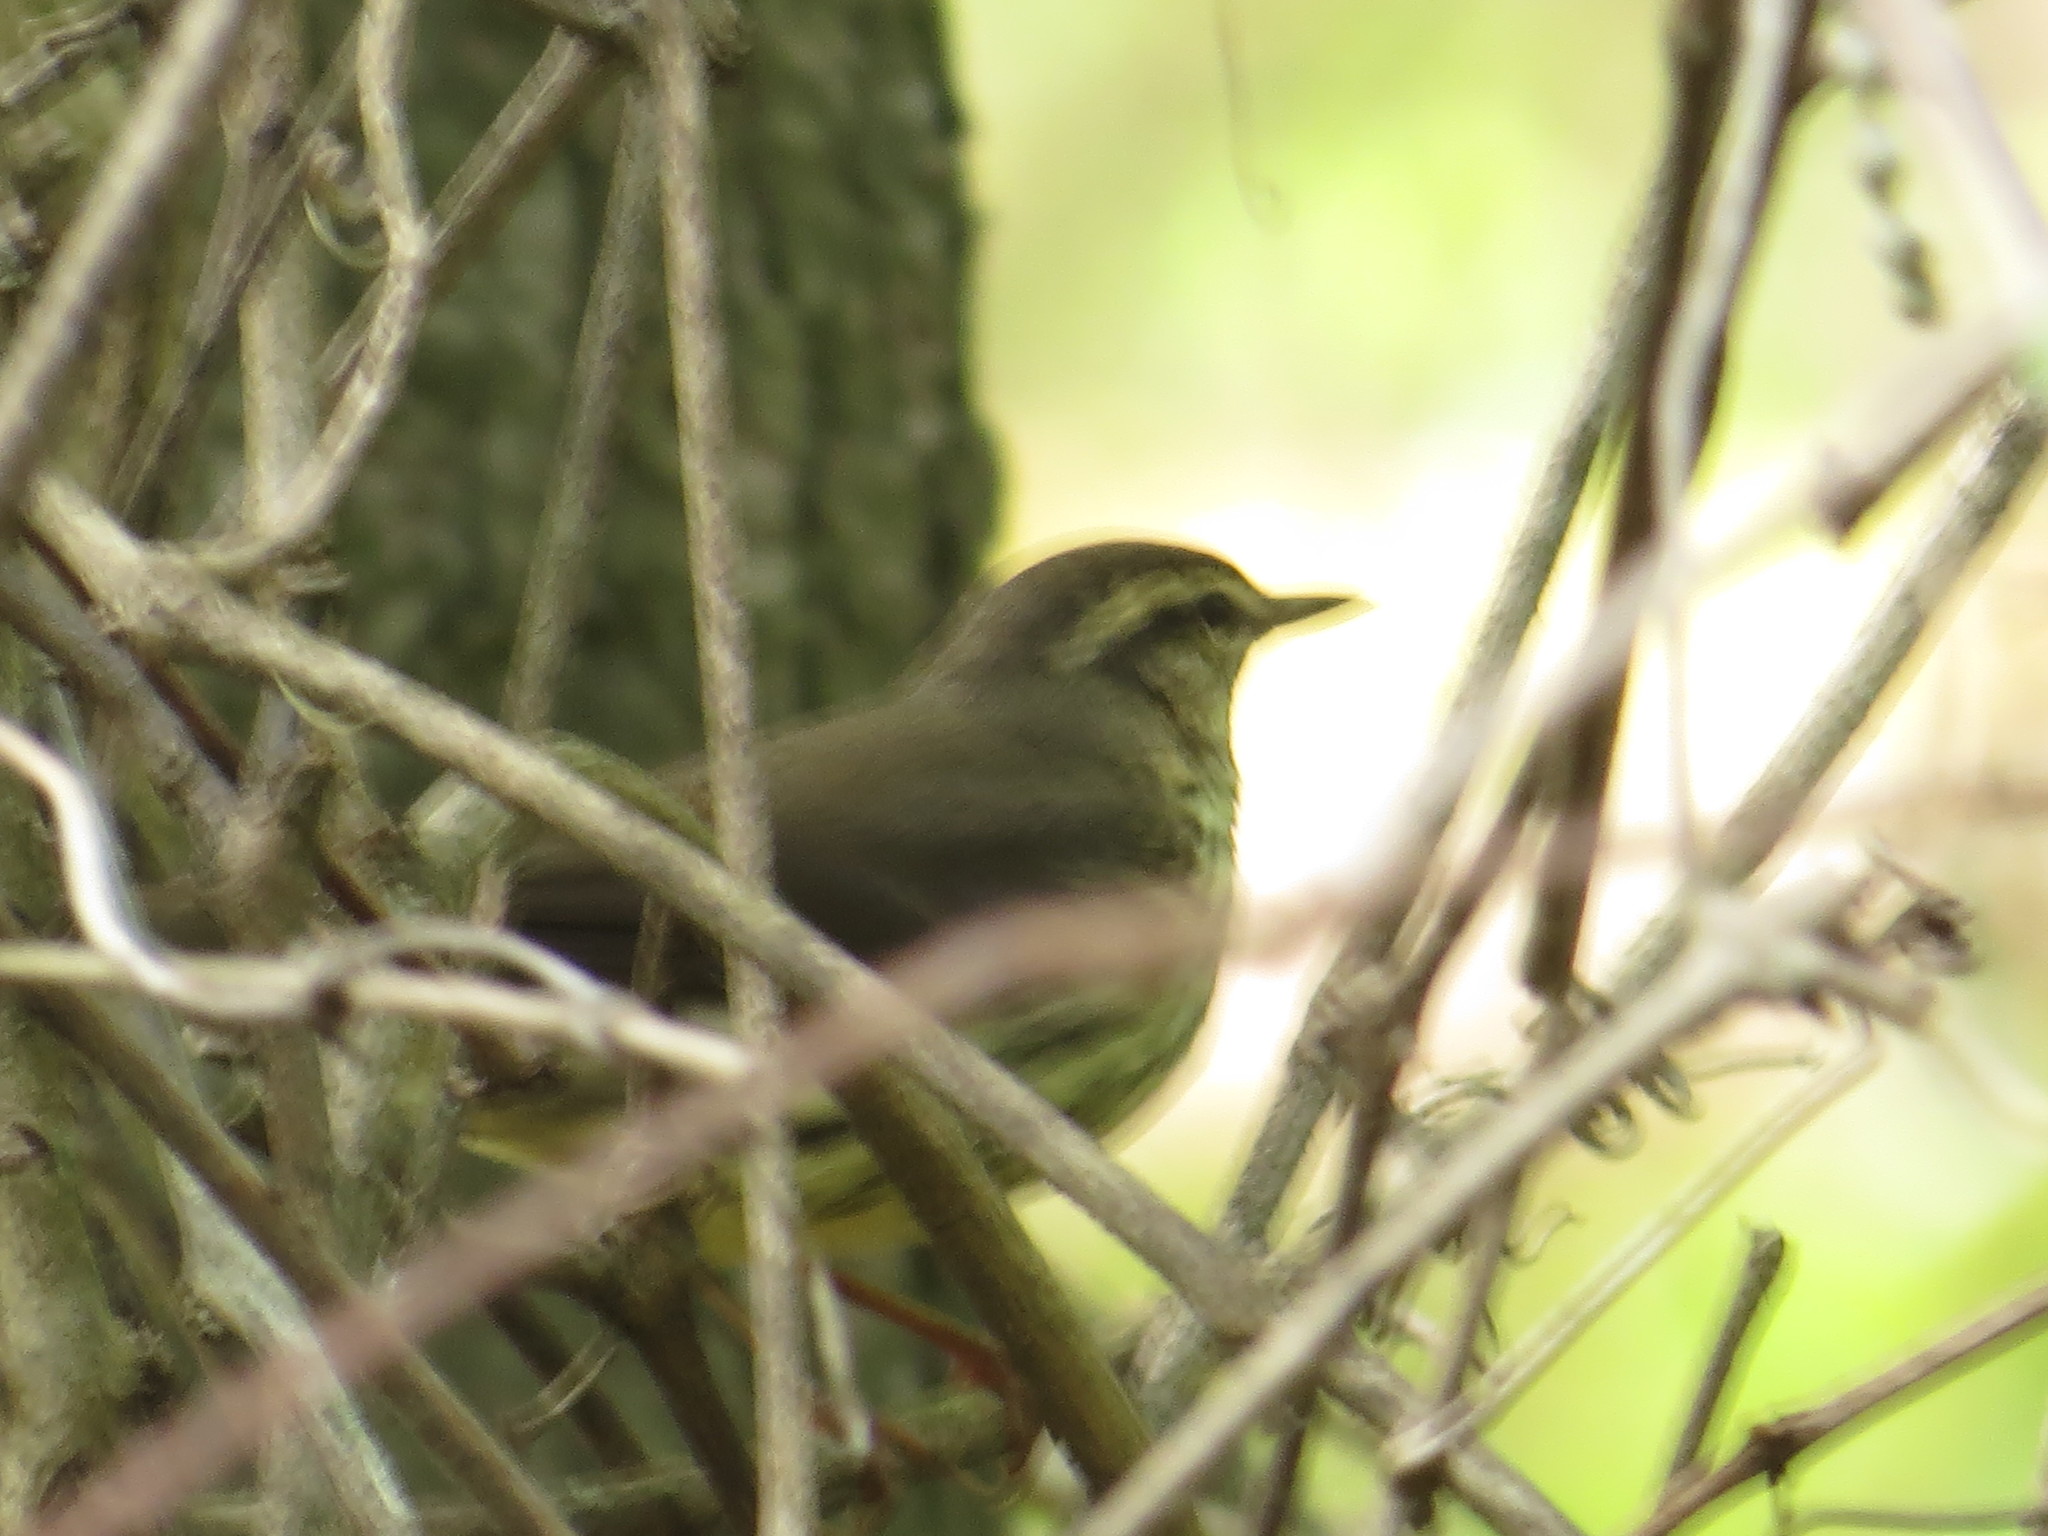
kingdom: Animalia
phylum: Chordata
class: Aves
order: Passeriformes
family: Parulidae
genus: Parkesia
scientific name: Parkesia
